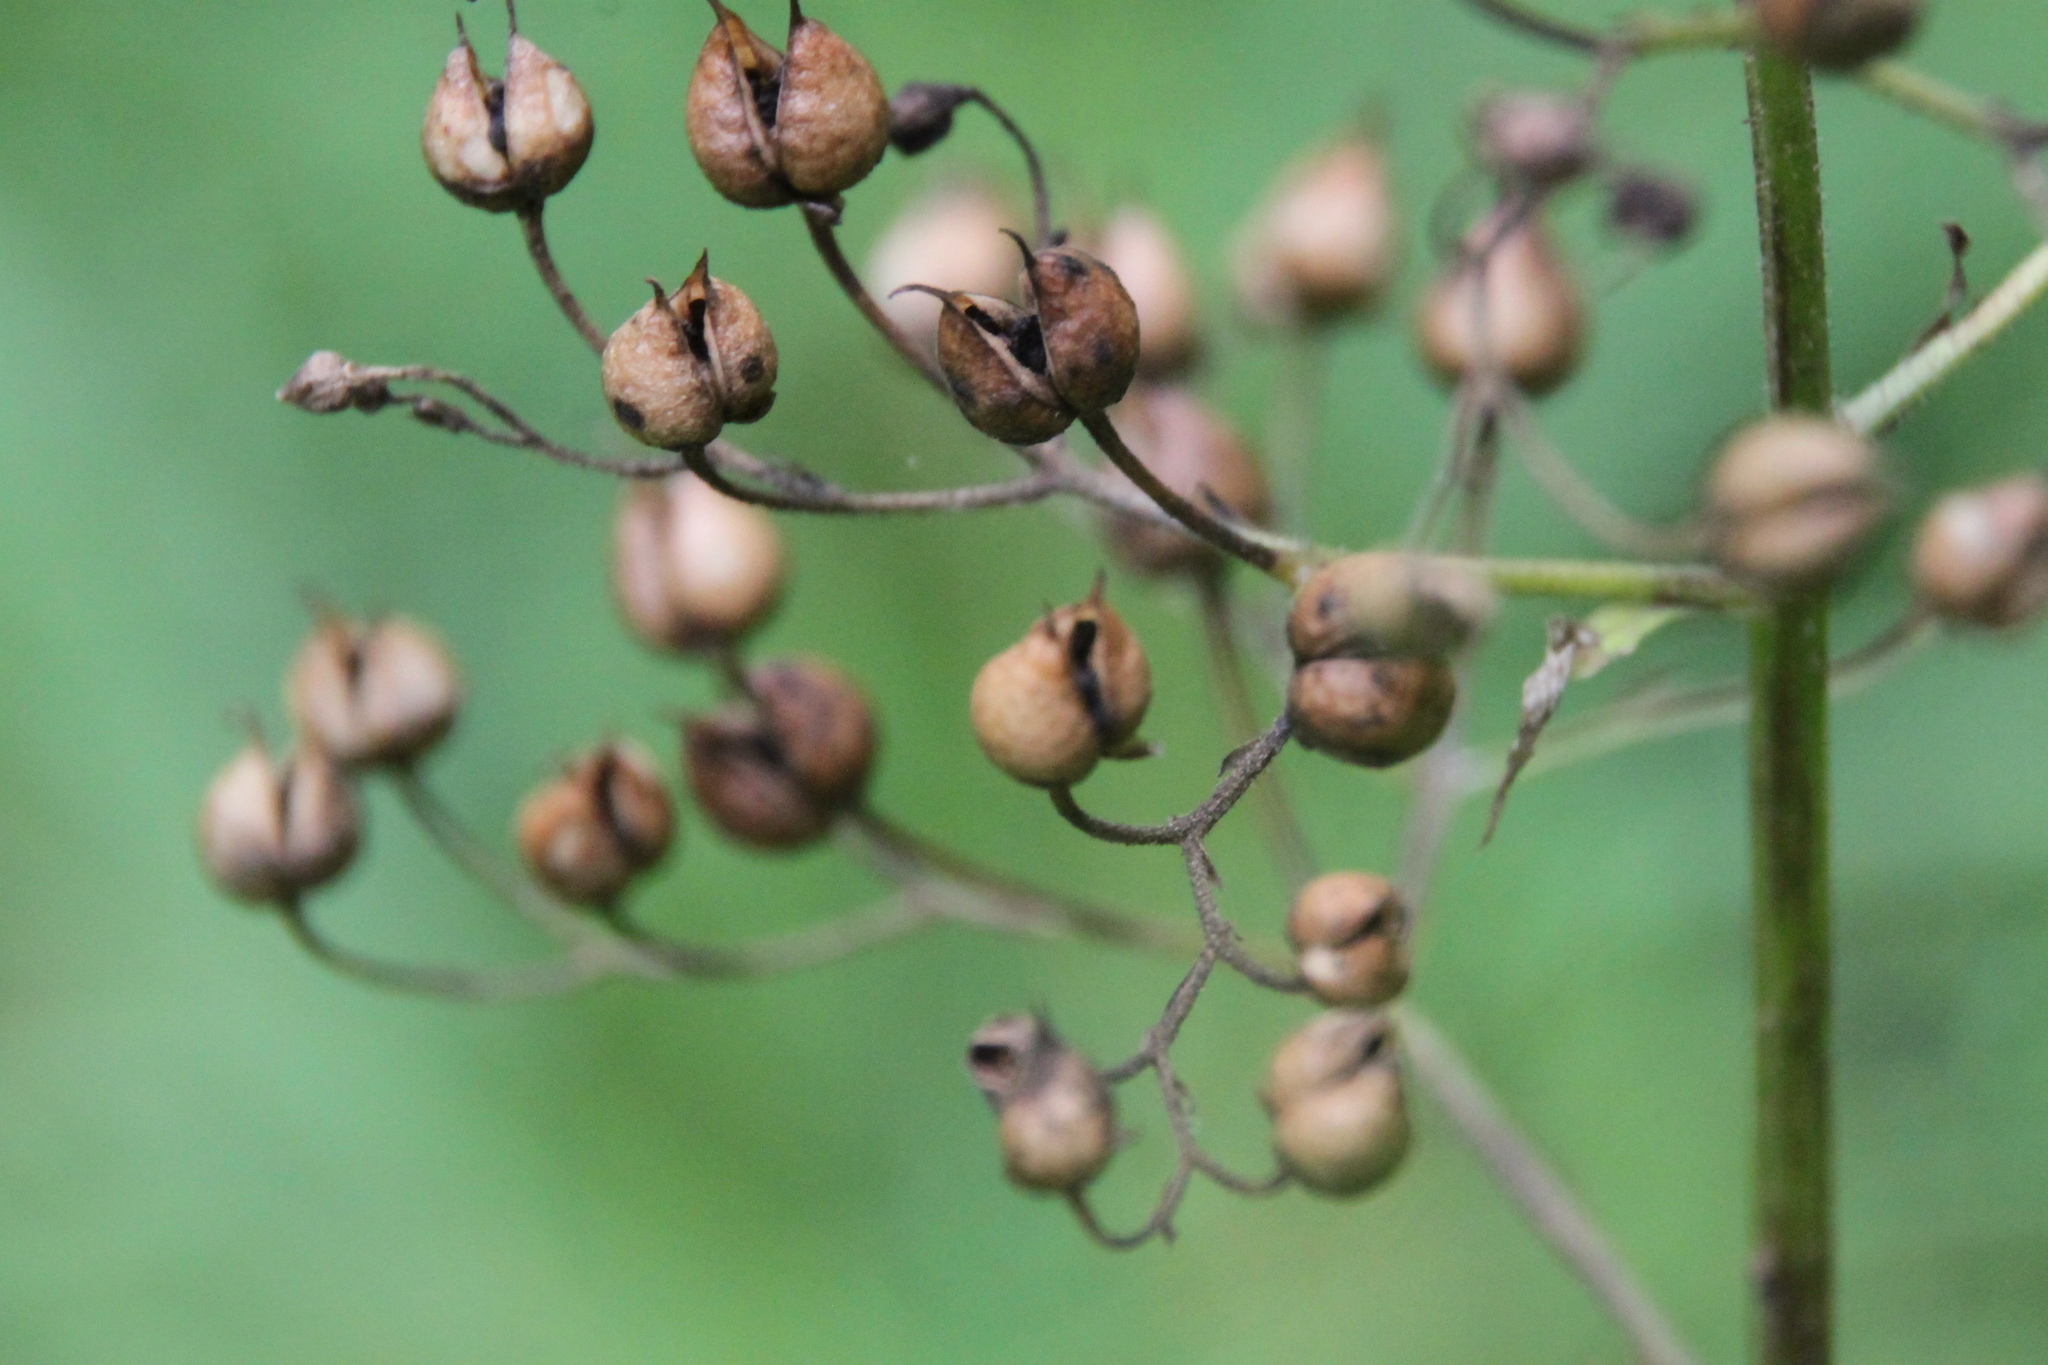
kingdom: Plantae
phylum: Tracheophyta
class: Magnoliopsida
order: Lamiales
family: Scrophulariaceae
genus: Scrophularia
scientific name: Scrophularia nodosa
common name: Common figwort
